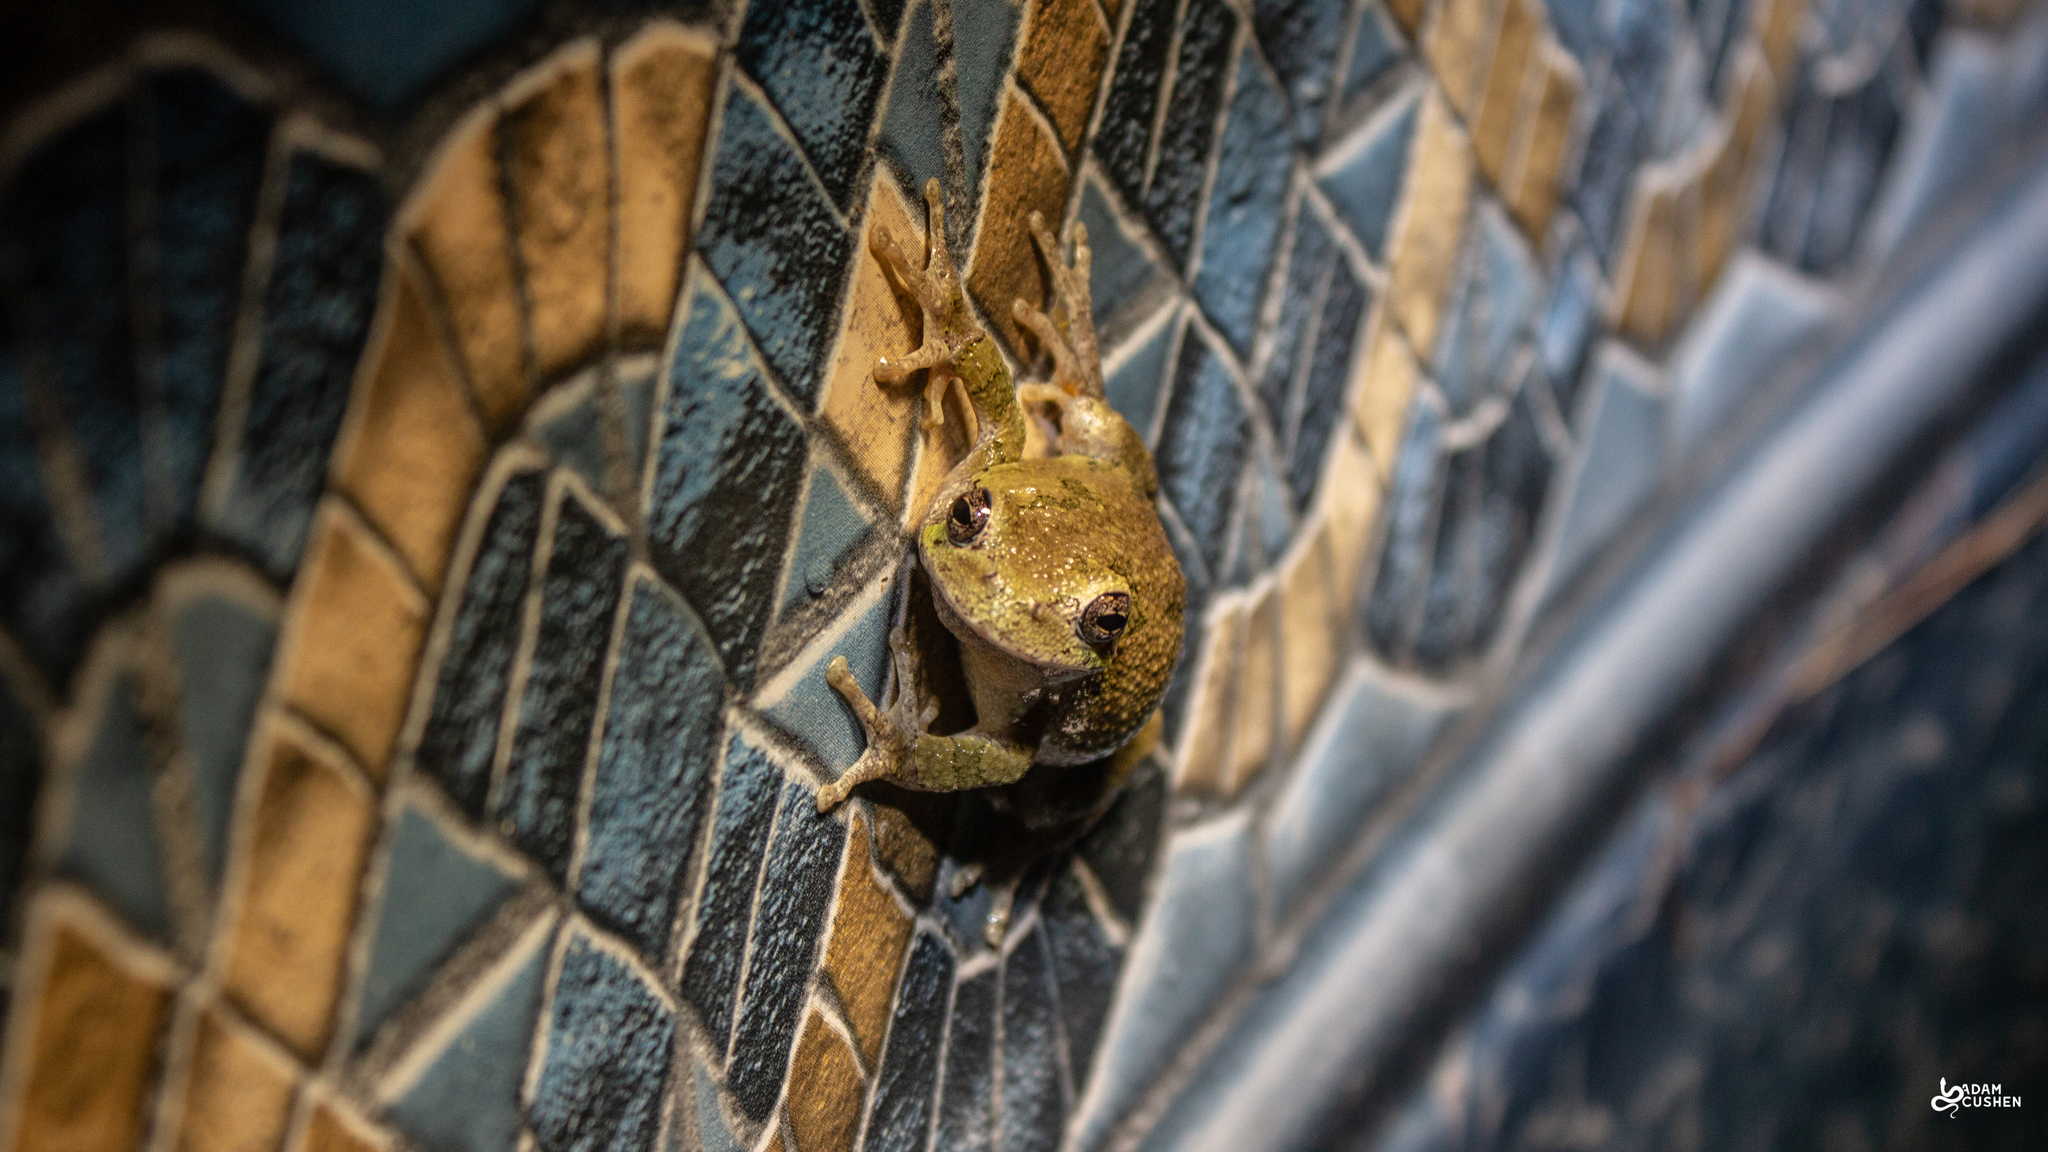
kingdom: Animalia
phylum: Chordata
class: Amphibia
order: Anura
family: Hylidae
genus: Dryophytes
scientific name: Dryophytes versicolor
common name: Gray treefrog
